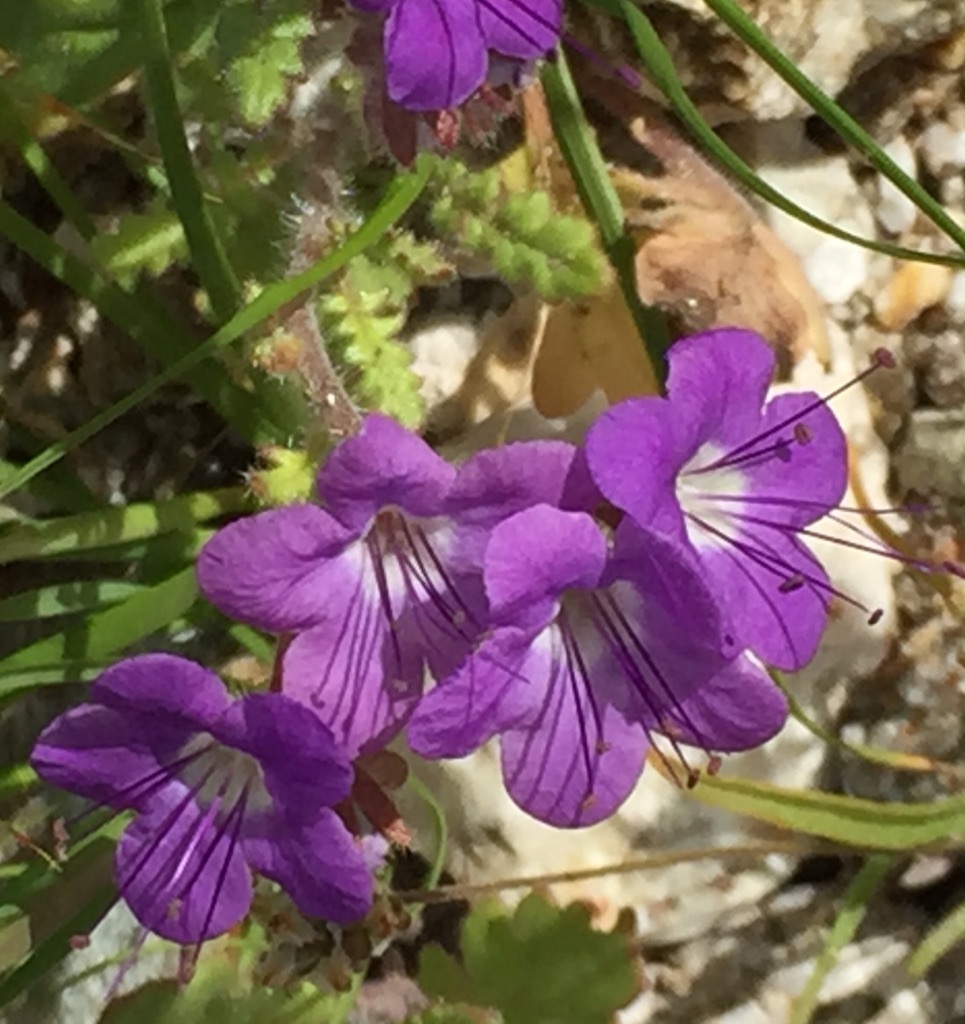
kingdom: Plantae
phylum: Tracheophyta
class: Magnoliopsida
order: Boraginales
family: Hydrophyllaceae
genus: Phacelia
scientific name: Phacelia crenulata
